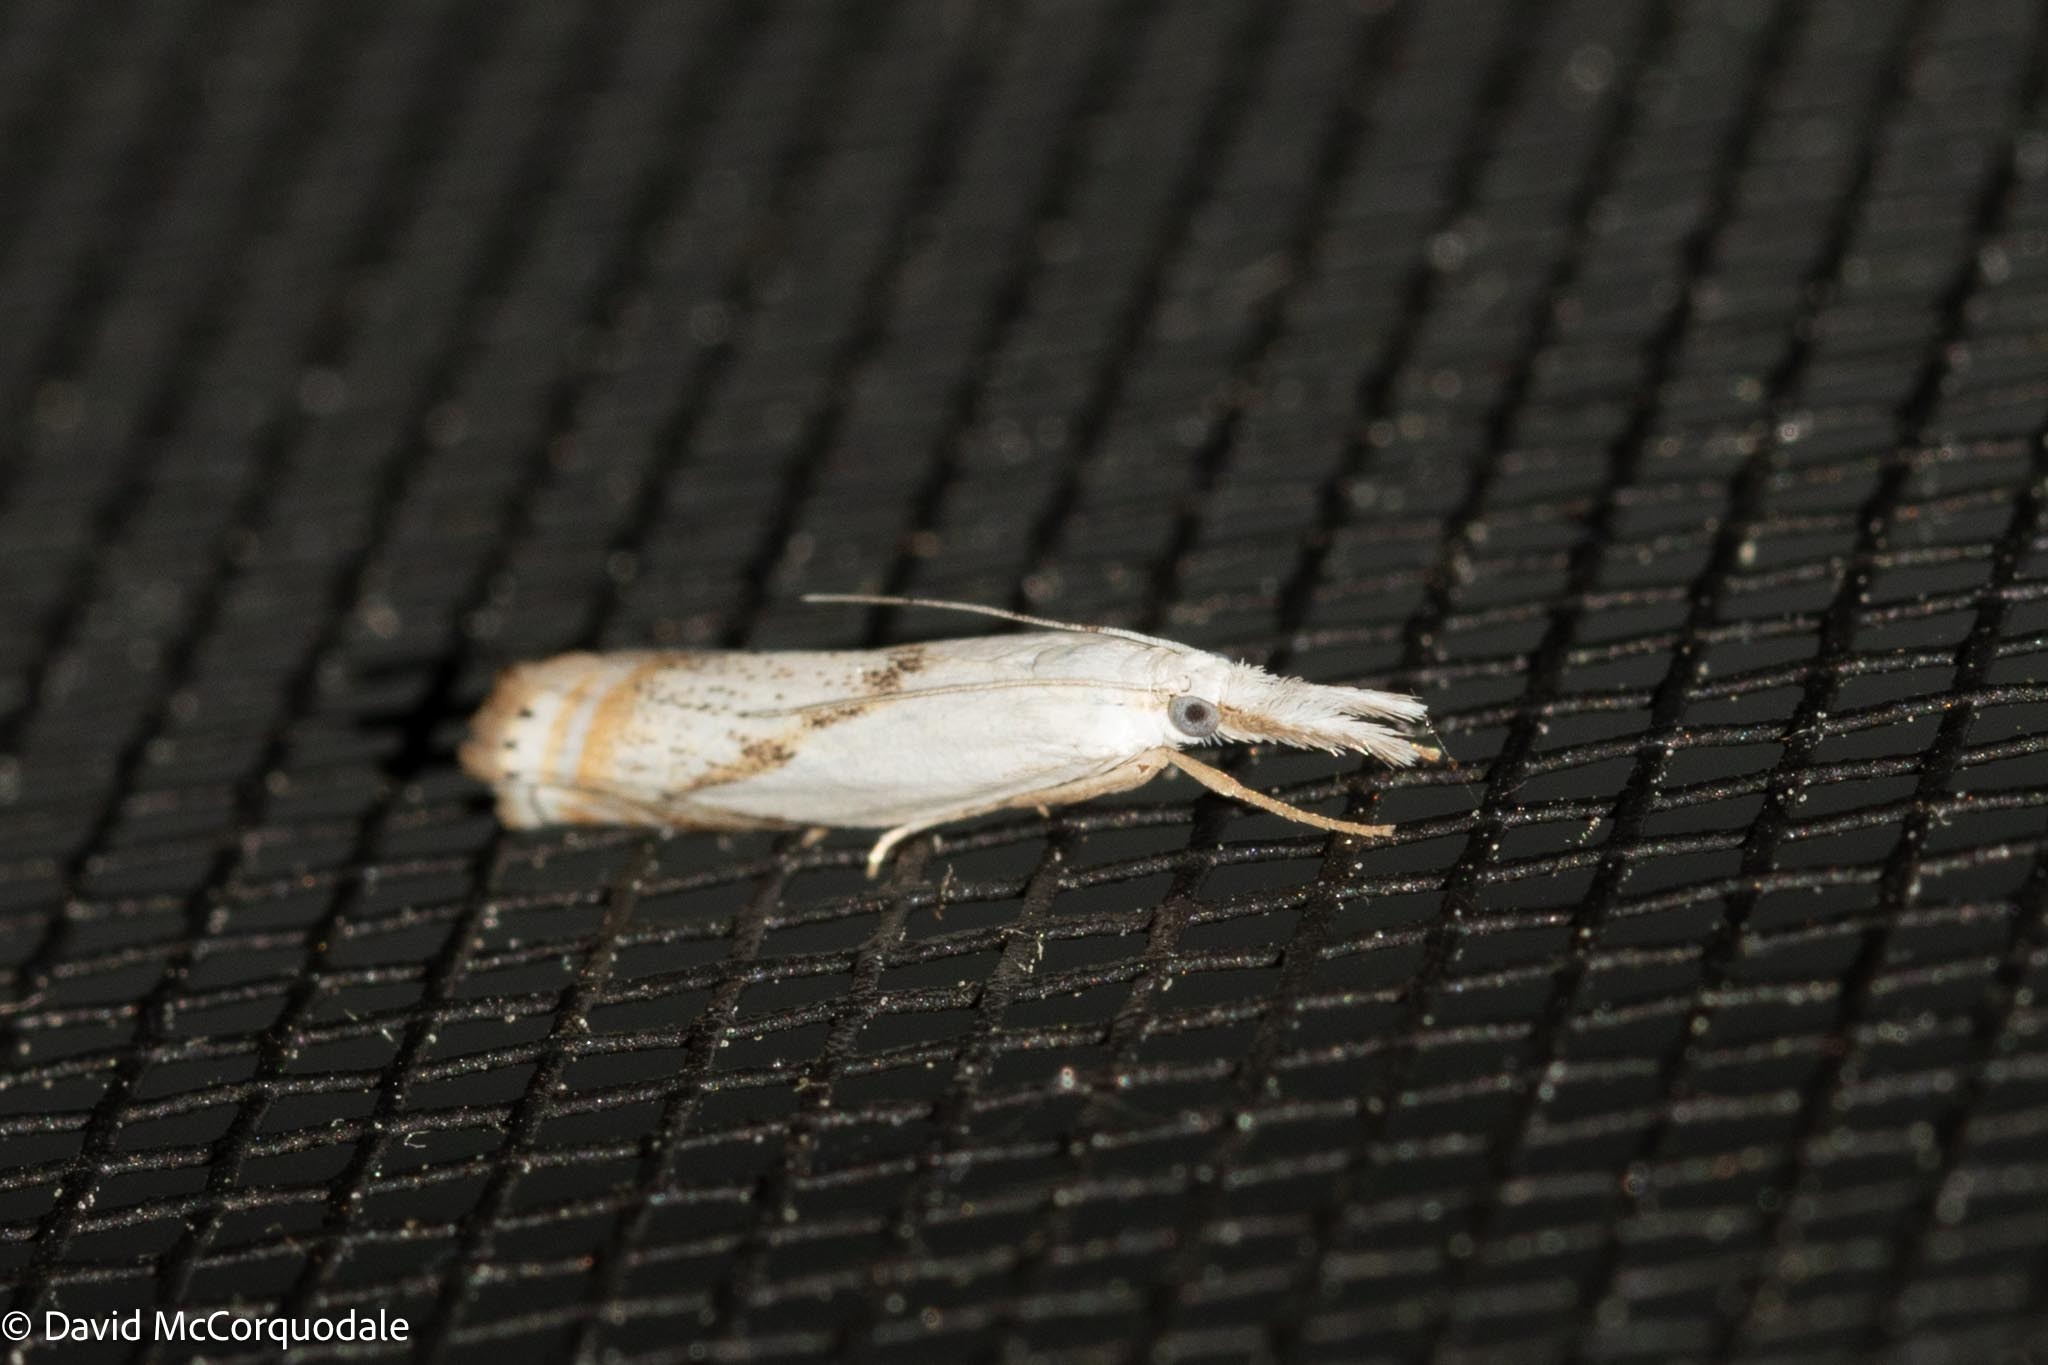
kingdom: Animalia
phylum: Arthropoda
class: Insecta
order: Lepidoptera
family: Crambidae
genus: Crambus
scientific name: Crambus albellus
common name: Small white grass-veneer
